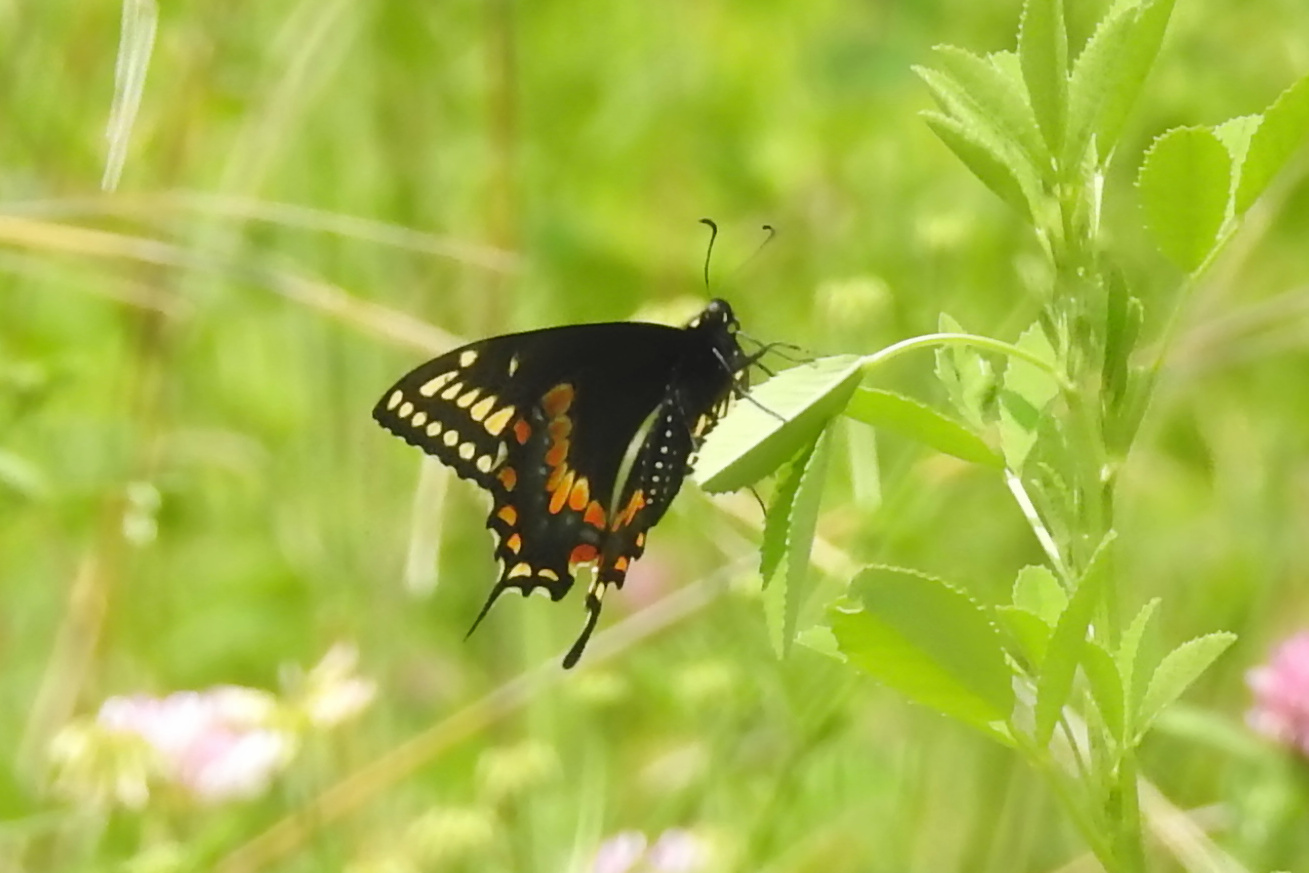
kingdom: Animalia
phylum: Arthropoda
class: Insecta
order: Lepidoptera
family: Papilionidae
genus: Papilio
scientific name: Papilio polyxenes
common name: Black swallowtail
